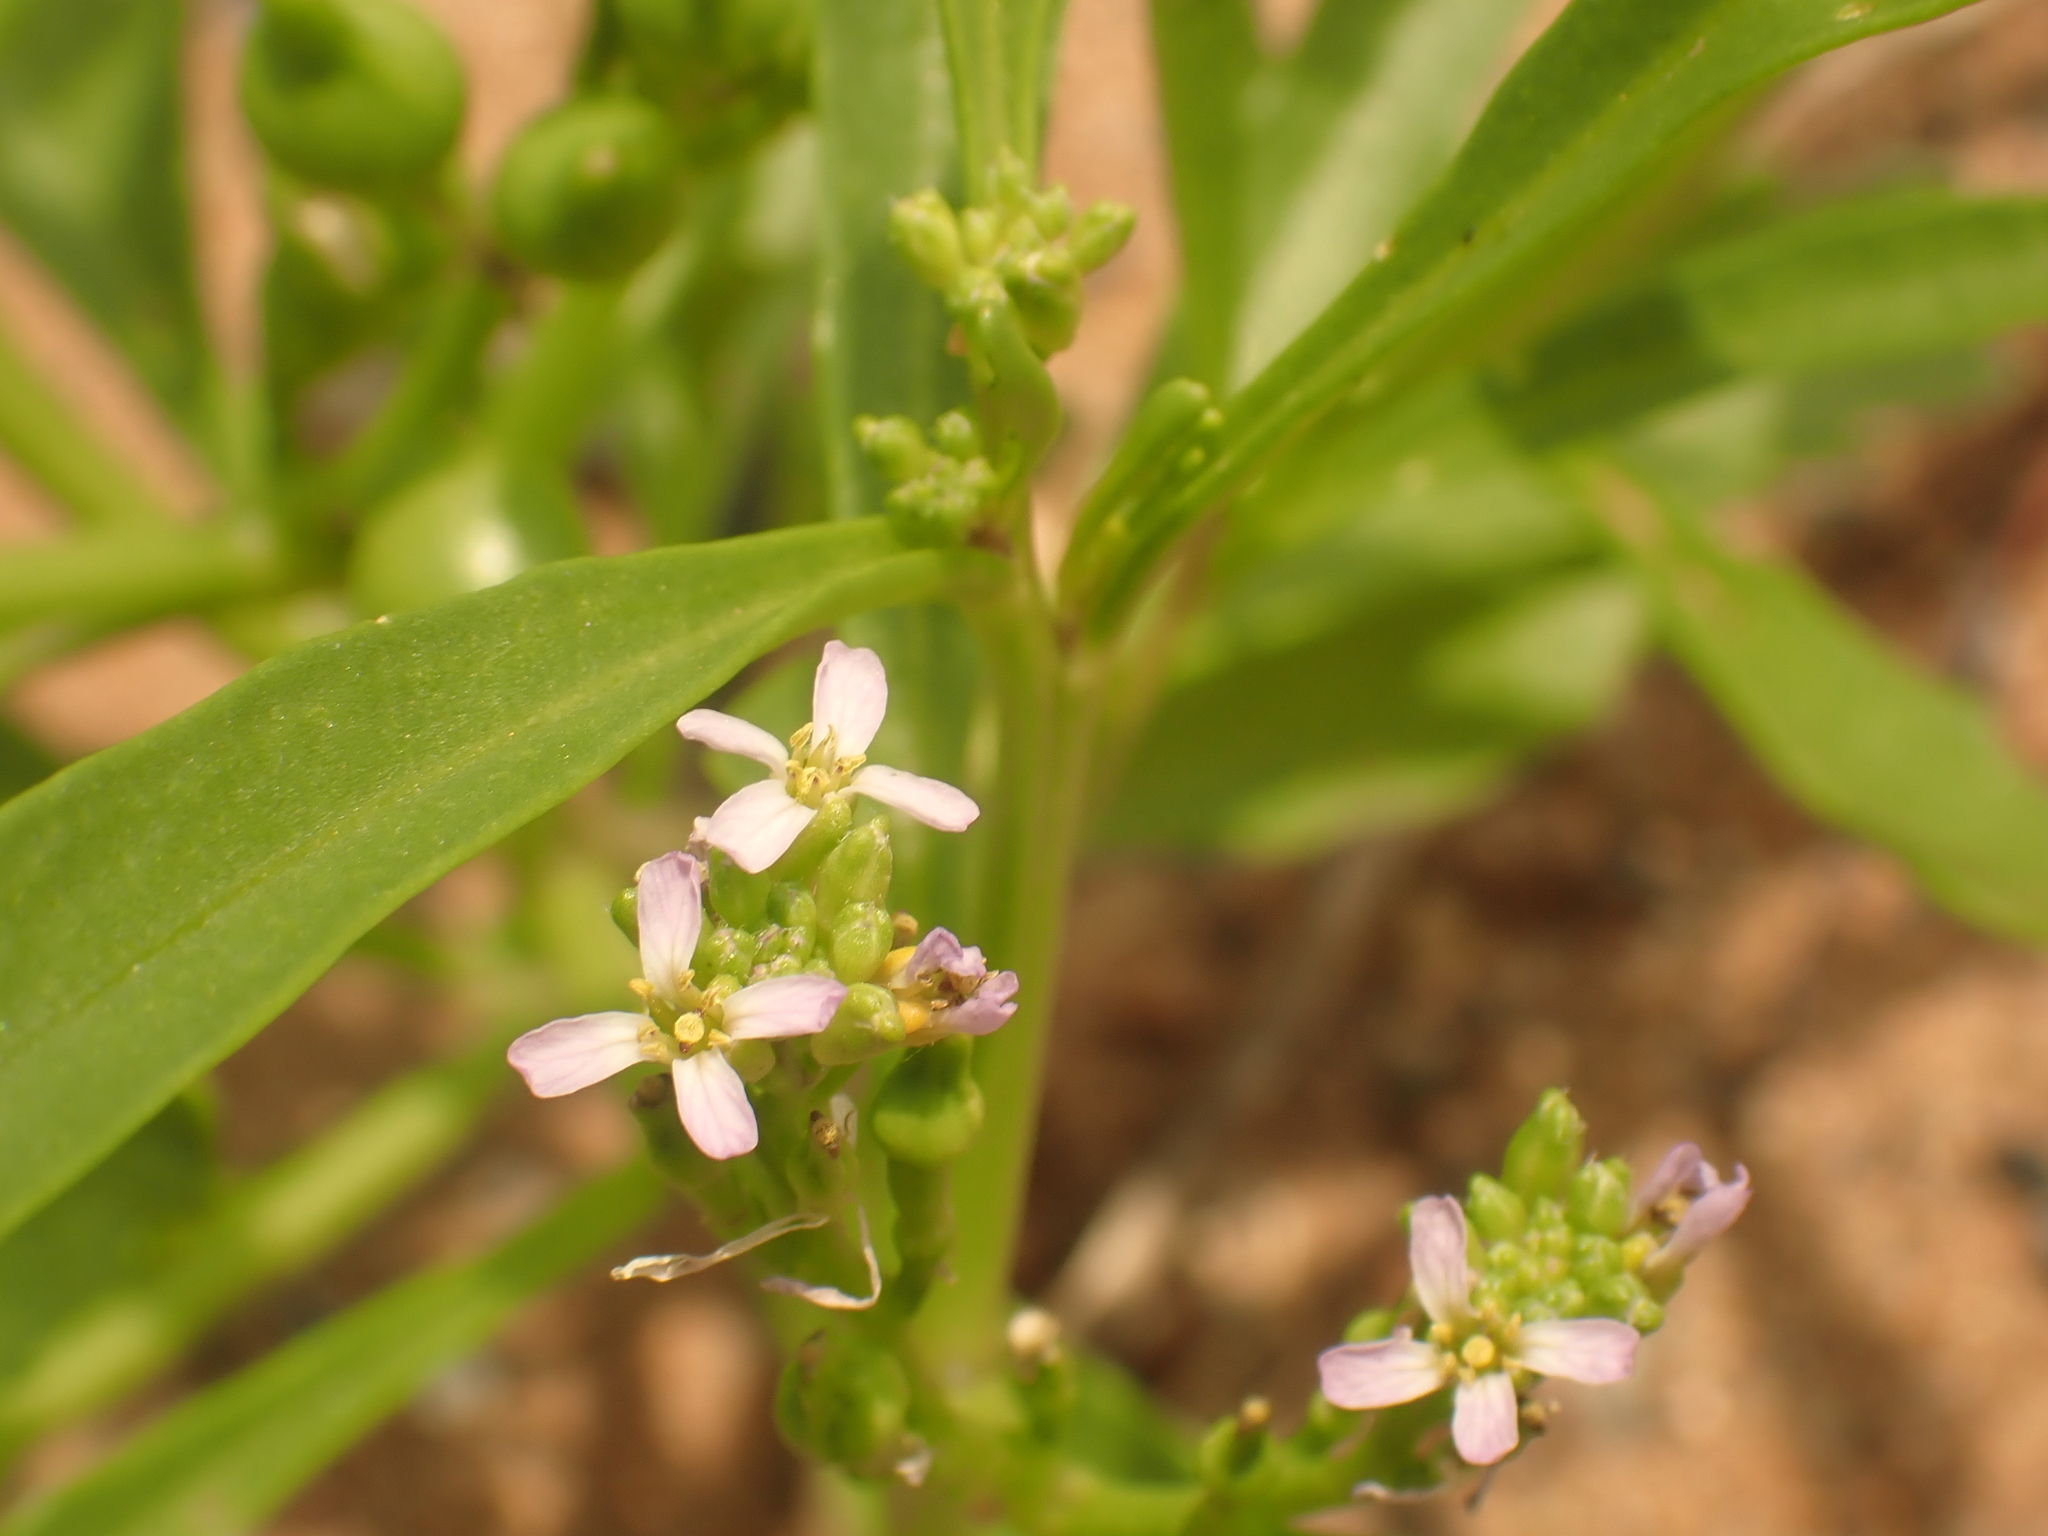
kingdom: Plantae
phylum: Tracheophyta
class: Magnoliopsida
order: Brassicales
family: Brassicaceae
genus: Cakile
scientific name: Cakile edentula
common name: American sea rocket
